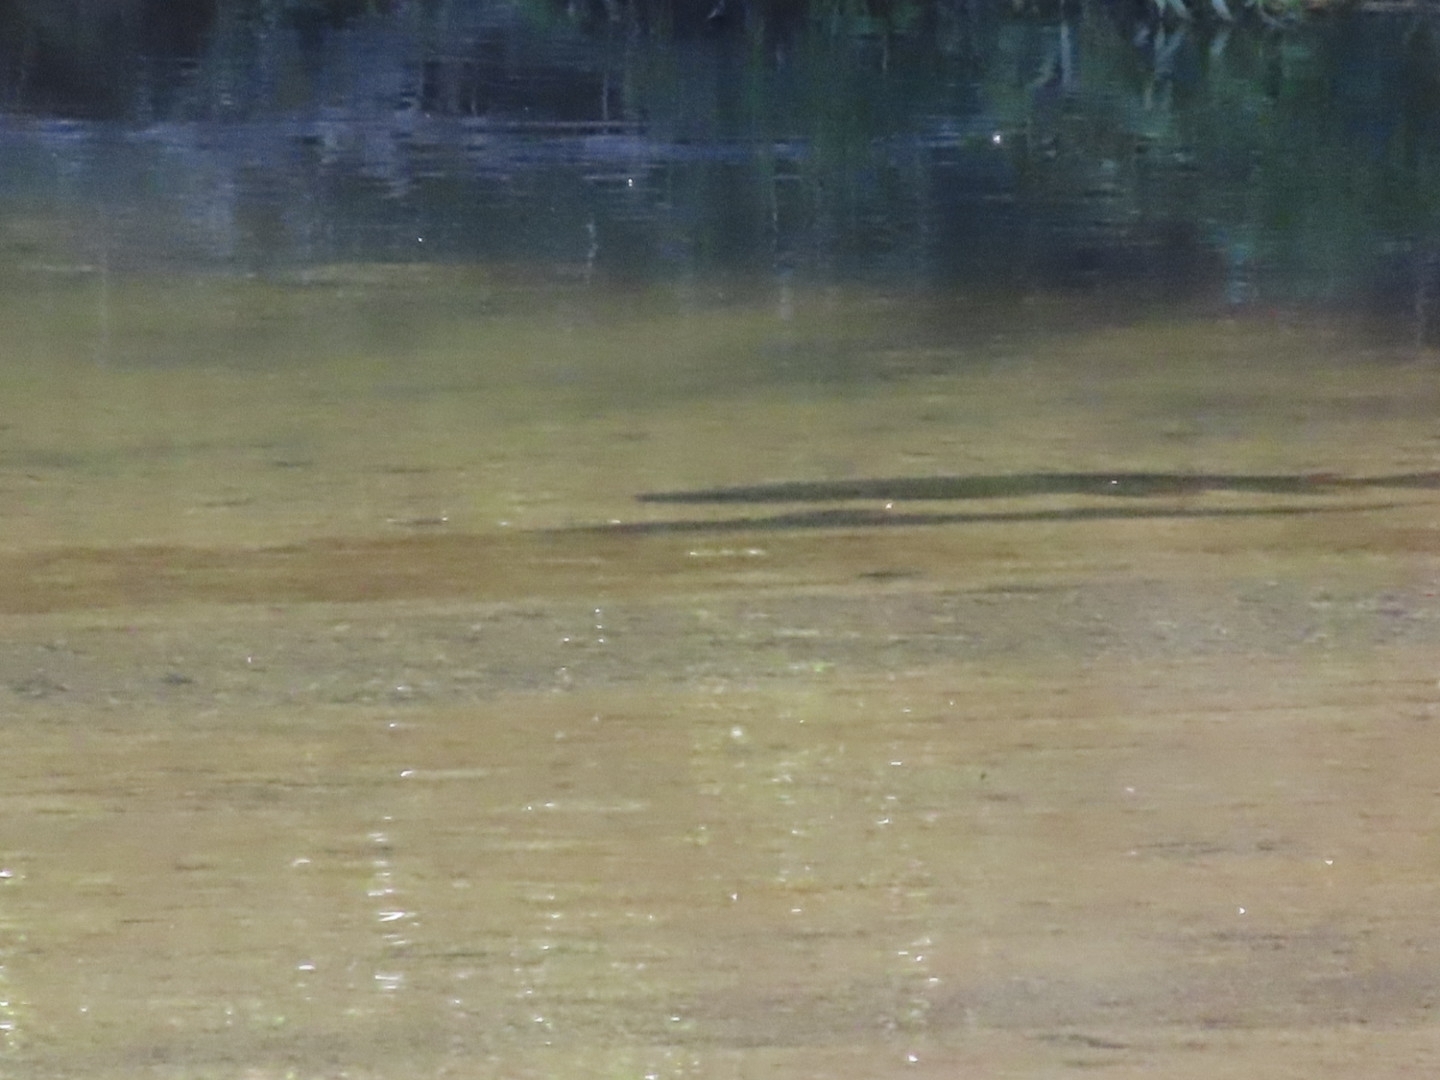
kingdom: Animalia
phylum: Chordata
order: Salmoniformes
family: Salmonidae
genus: Salmo
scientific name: Salmo trutta
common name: Brown trout
